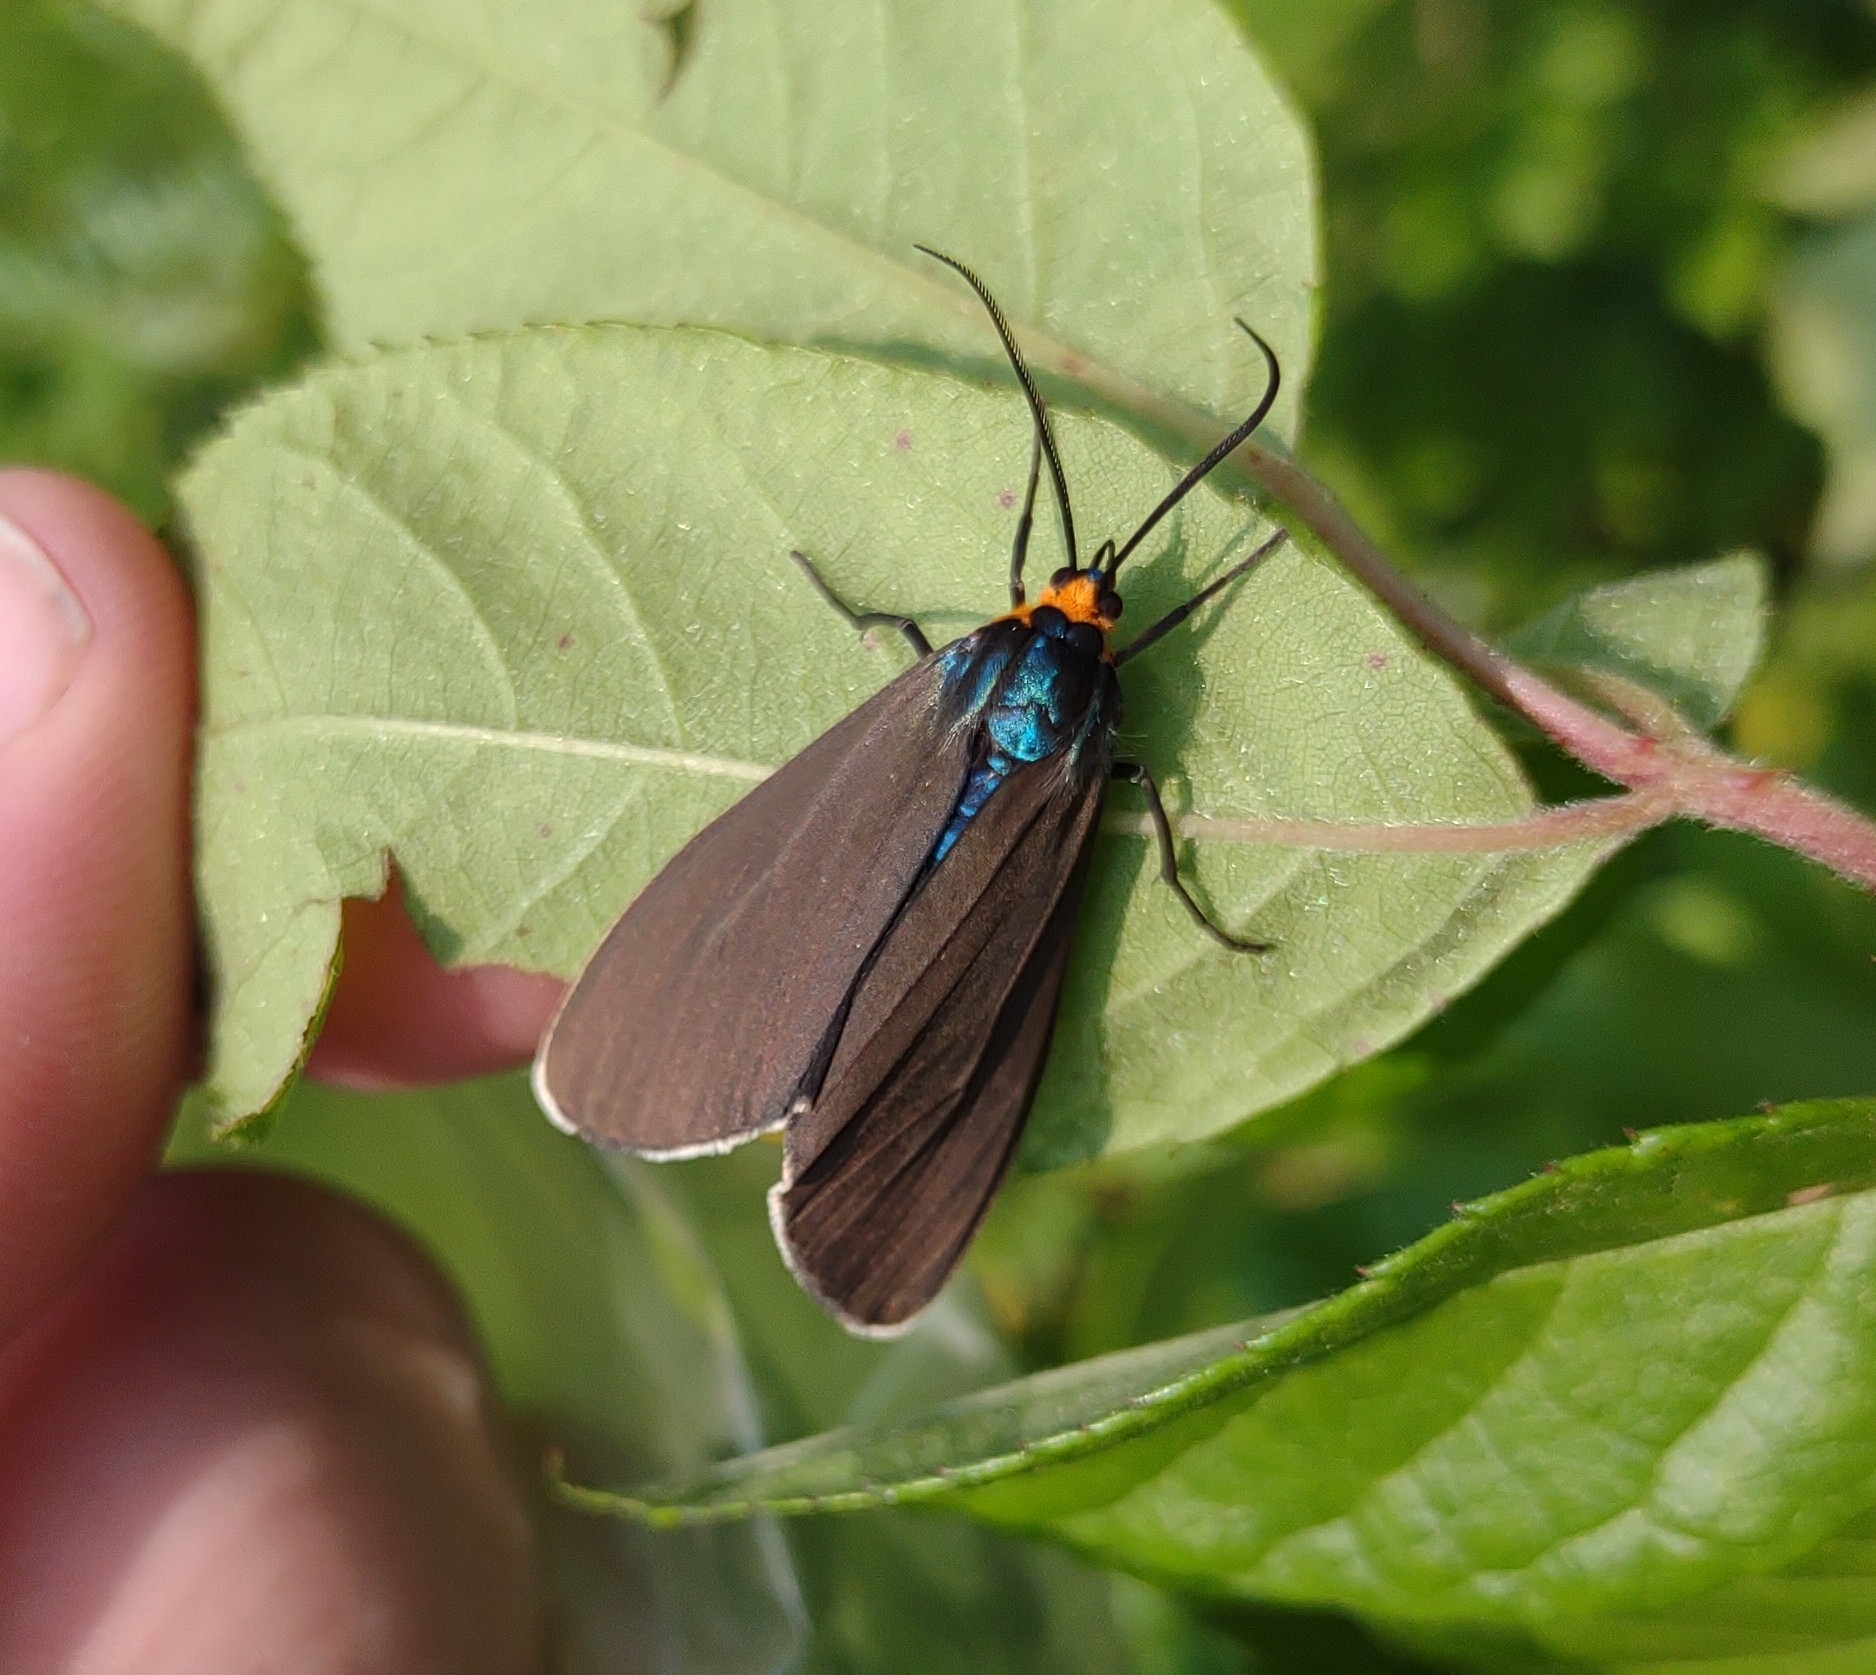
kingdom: Animalia
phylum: Arthropoda
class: Insecta
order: Lepidoptera
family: Erebidae
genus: Ctenucha
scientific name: Ctenucha virginica
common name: Virginia ctenucha moth
